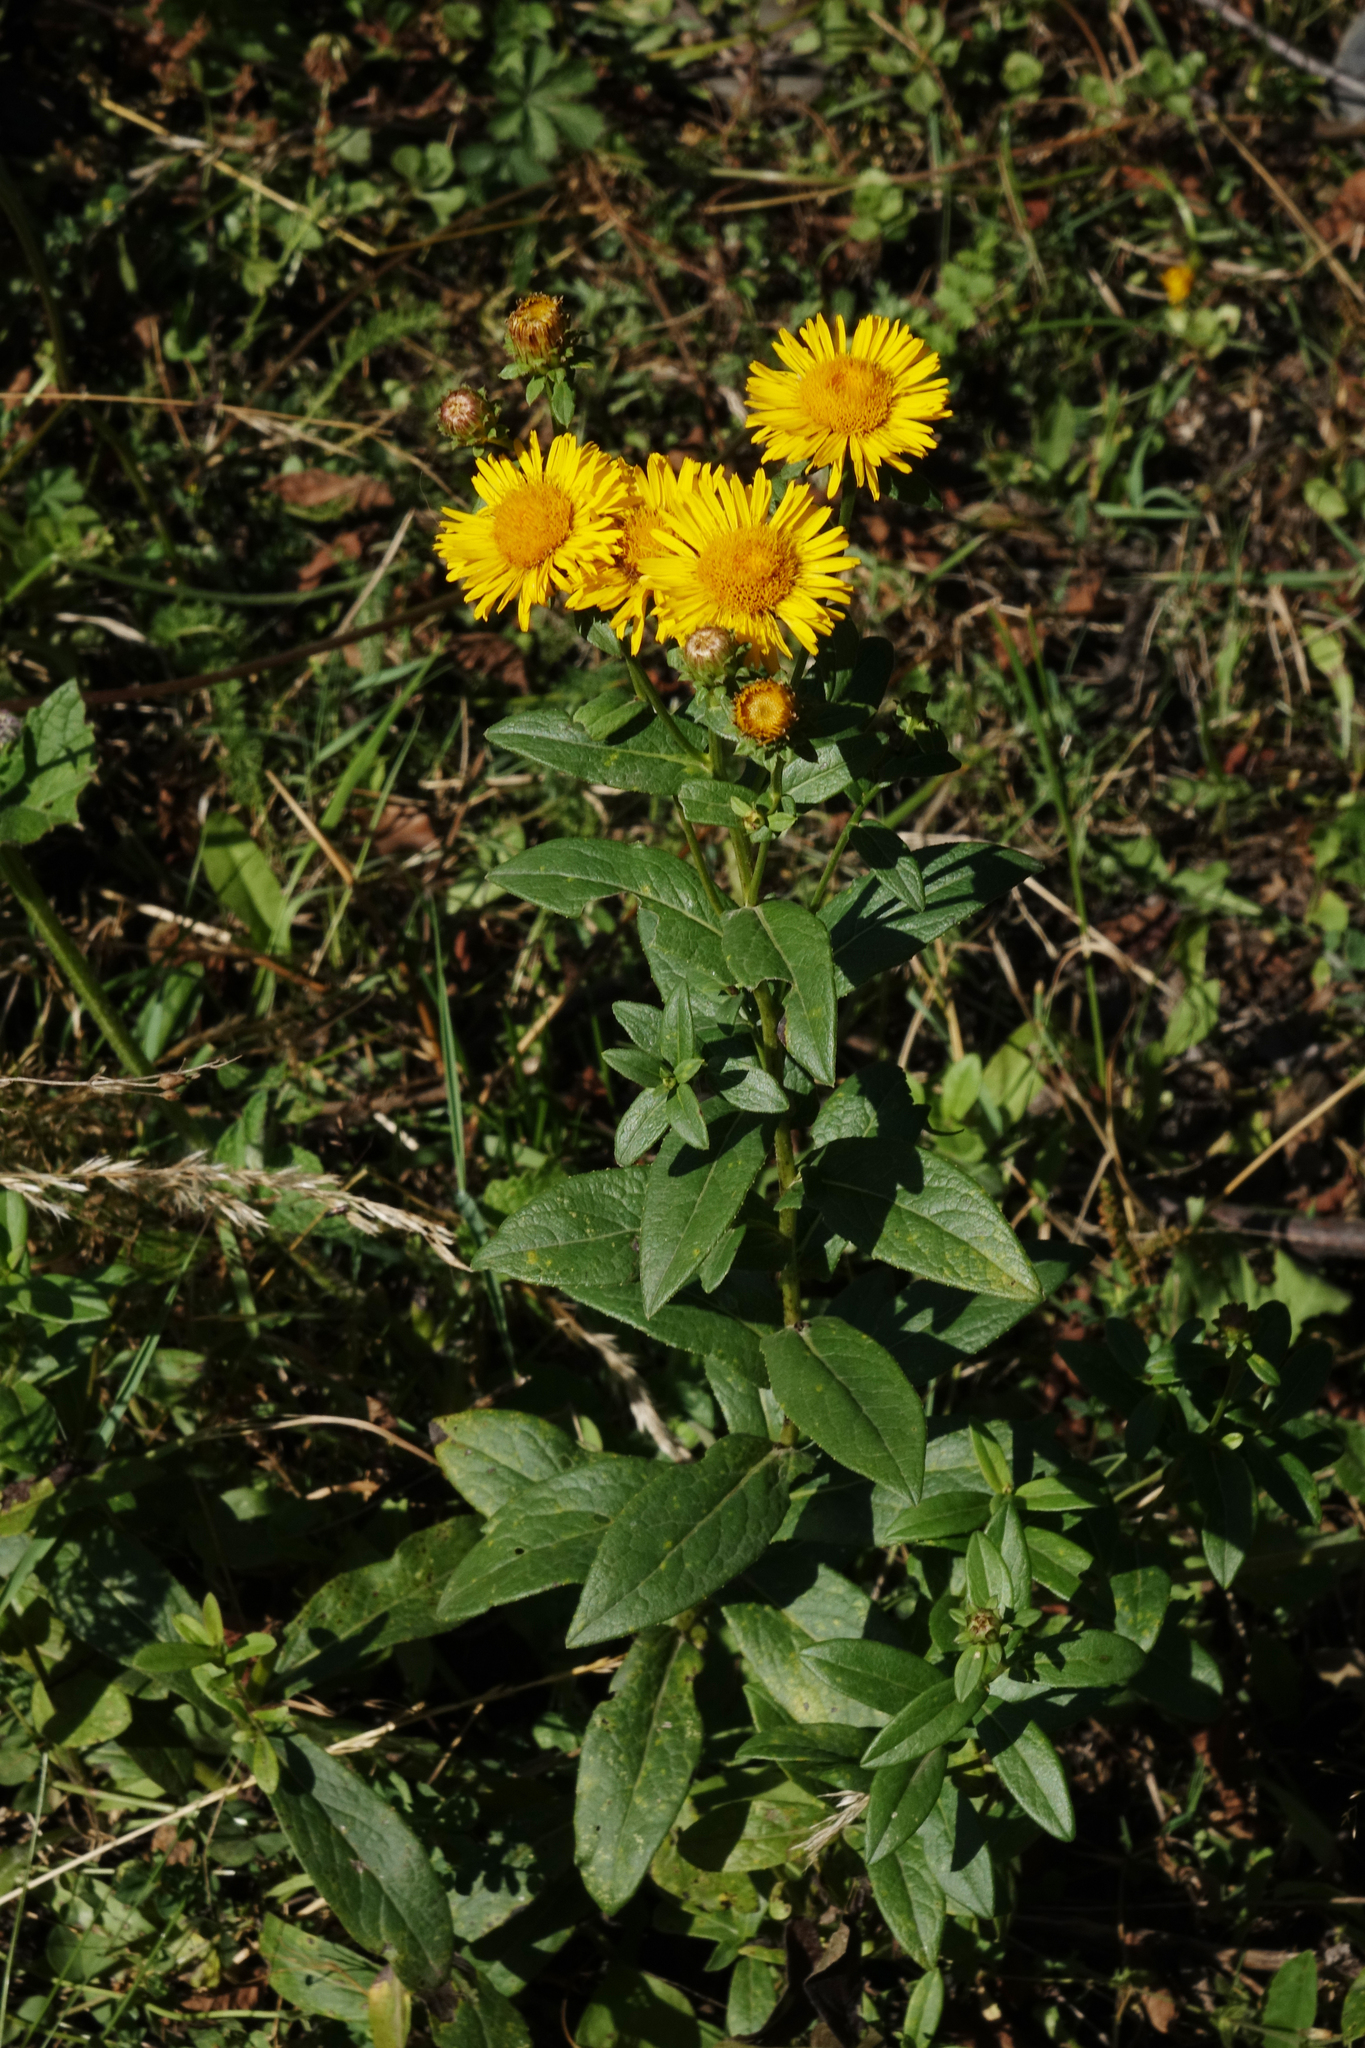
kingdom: Plantae
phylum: Tracheophyta
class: Magnoliopsida
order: Asterales
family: Asteraceae
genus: Pentanema
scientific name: Pentanema britannicum
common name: British elecampane
